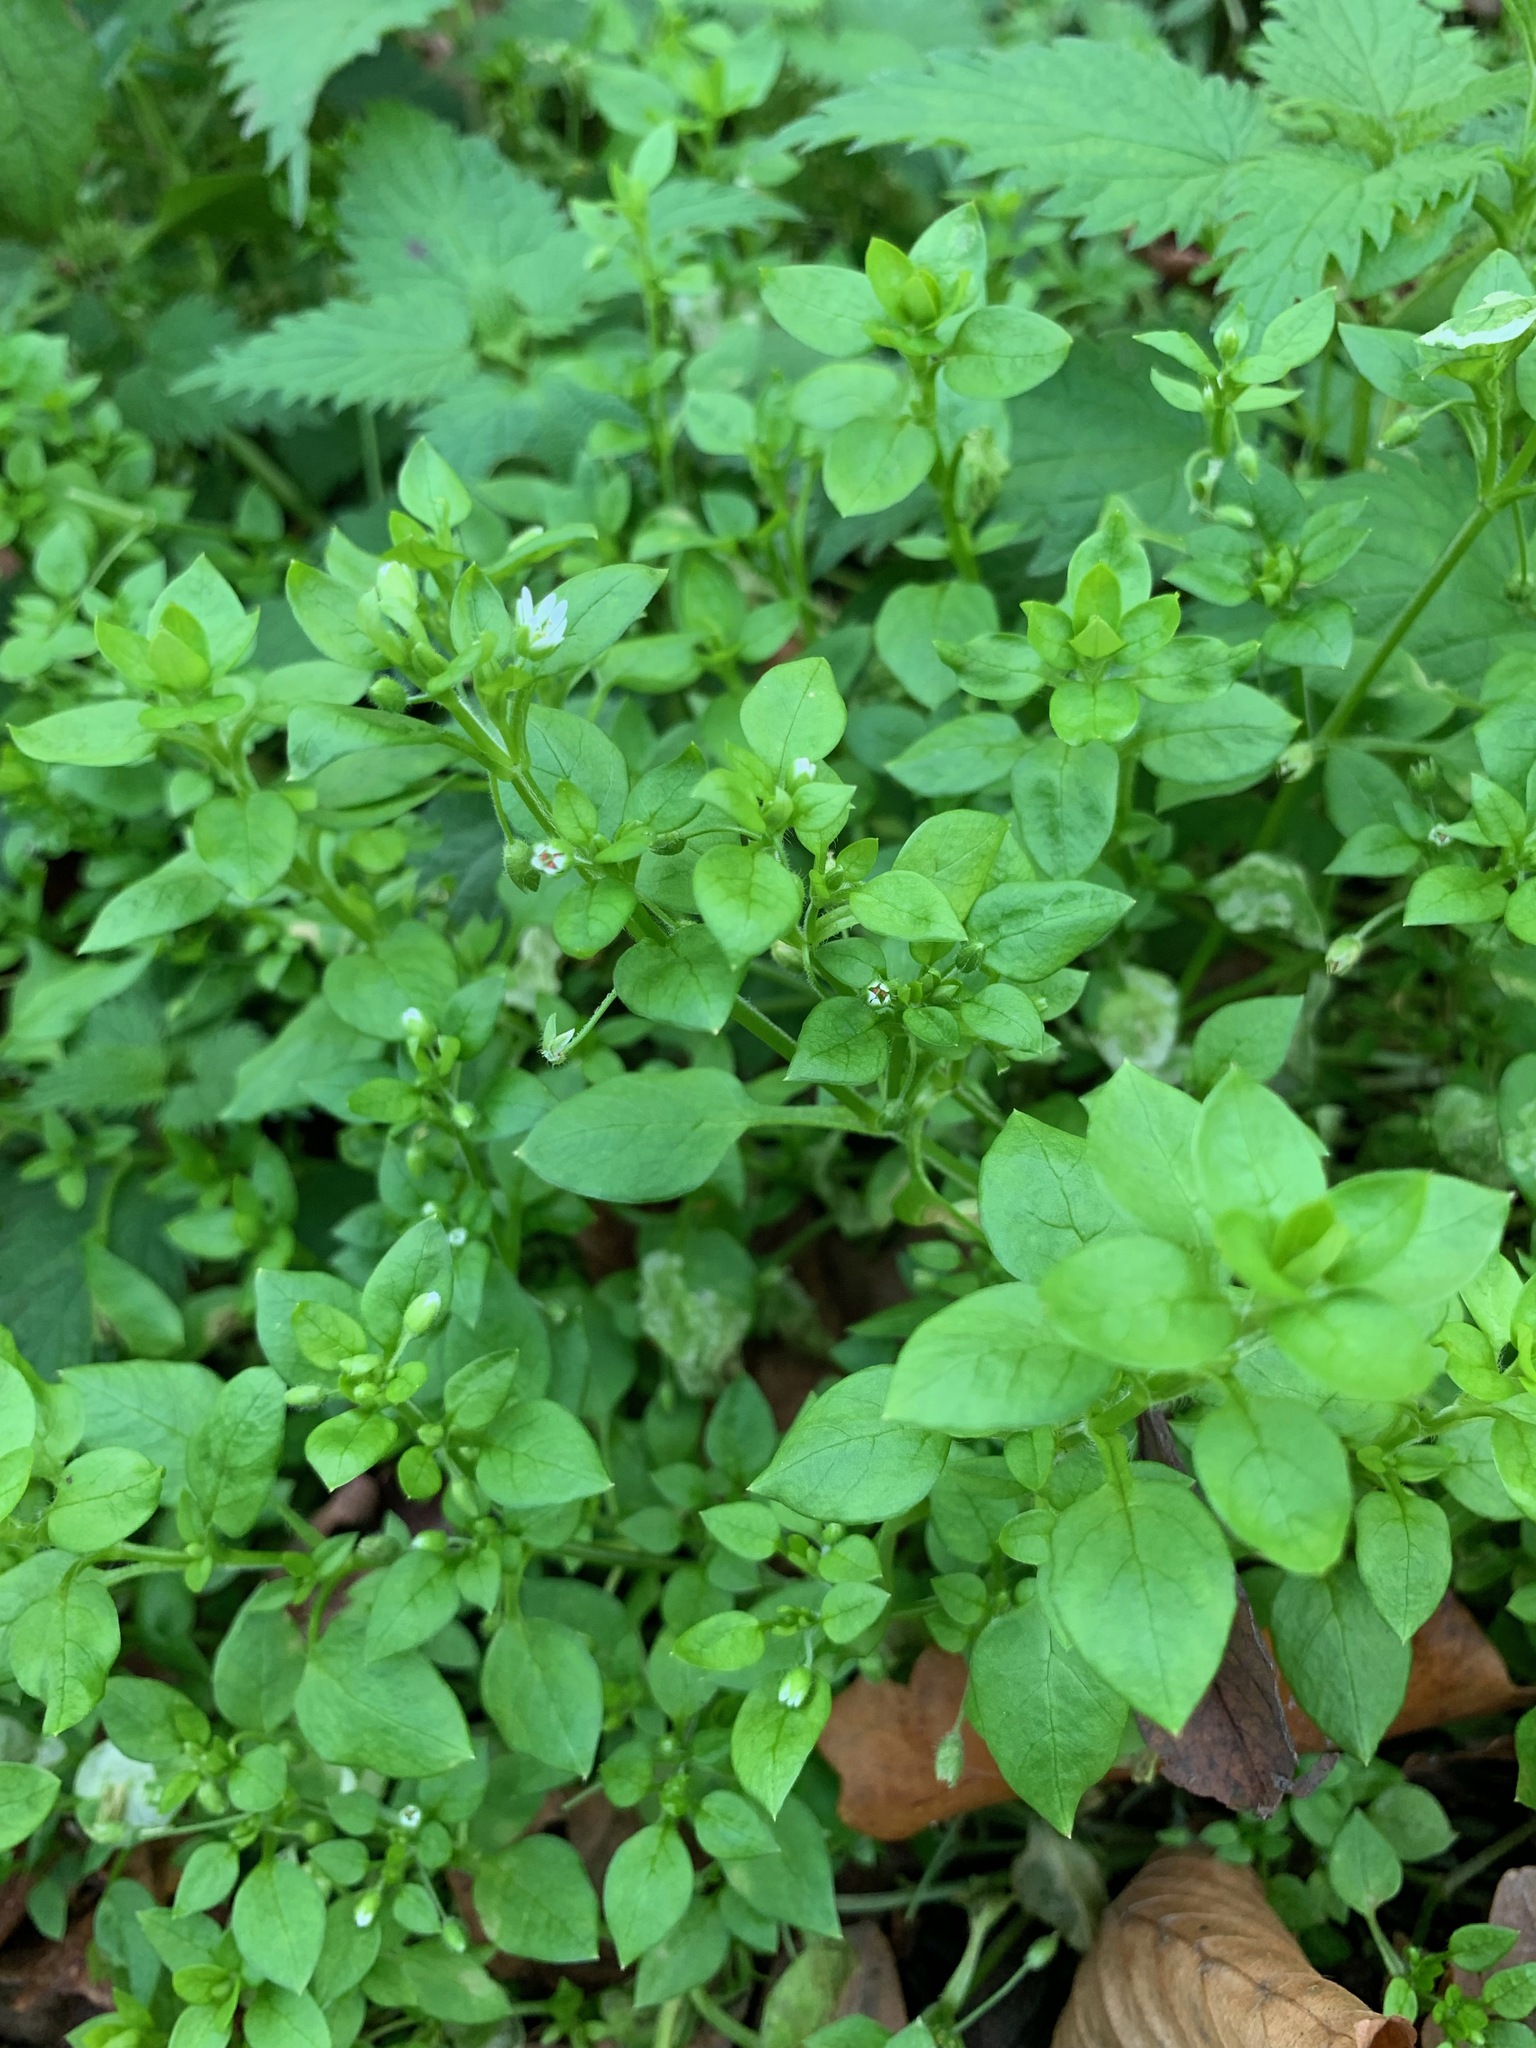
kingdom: Plantae
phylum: Tracheophyta
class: Magnoliopsida
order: Caryophyllales
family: Caryophyllaceae
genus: Stellaria
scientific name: Stellaria media
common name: Common chickweed
